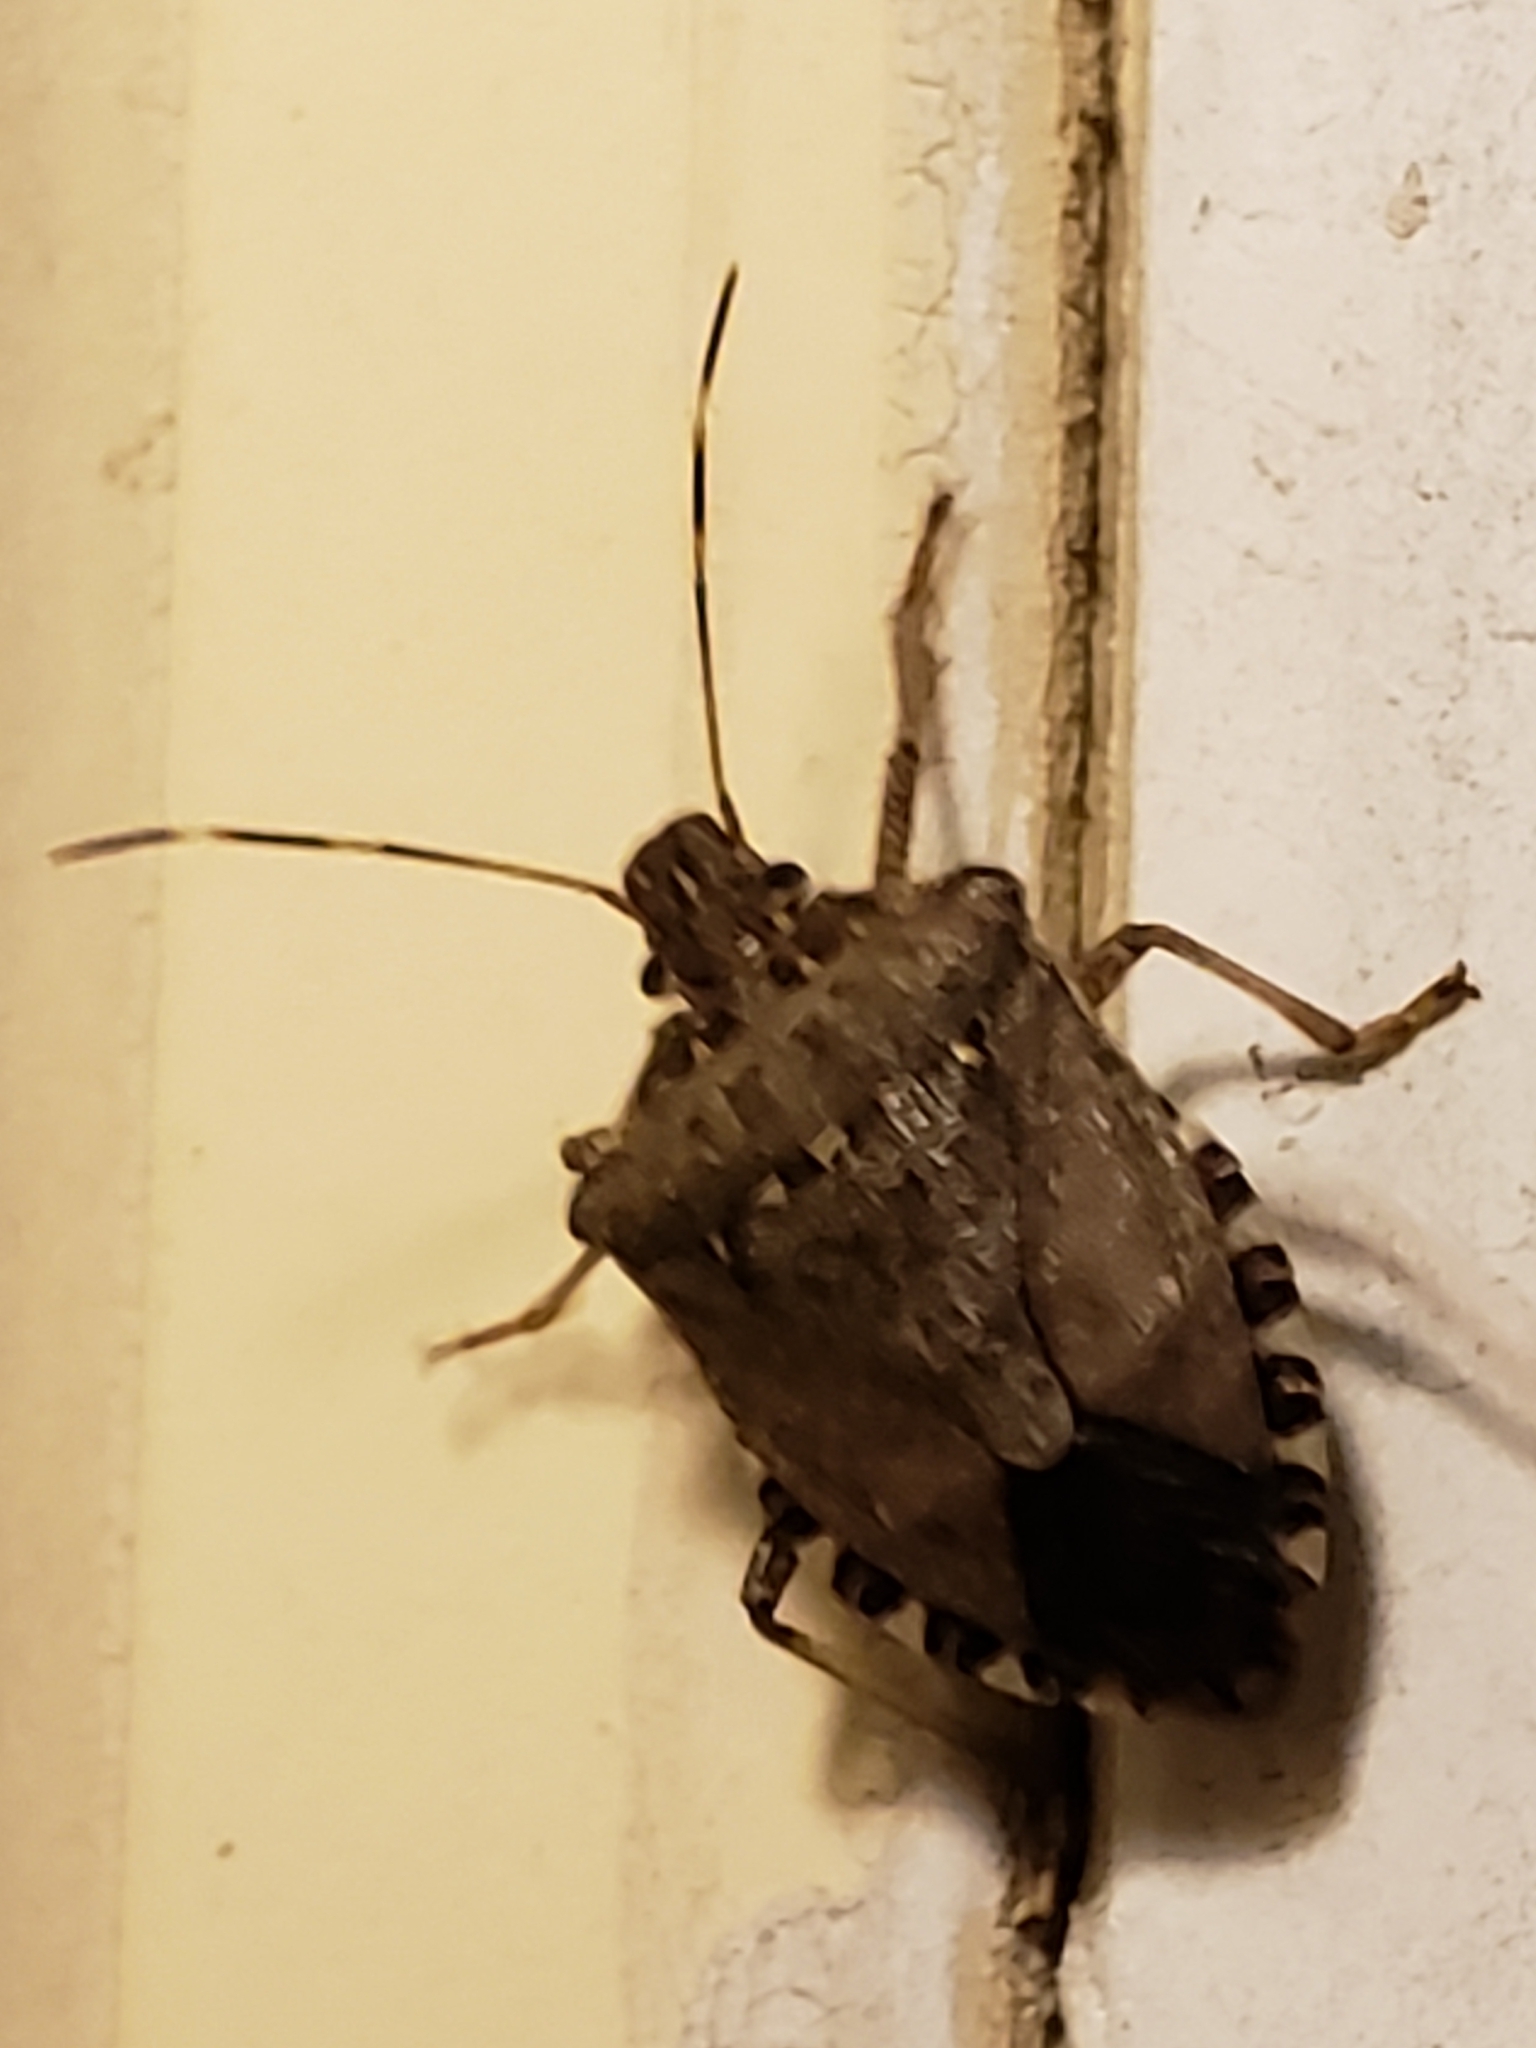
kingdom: Animalia
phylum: Arthropoda
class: Insecta
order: Hemiptera
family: Pentatomidae
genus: Halyomorpha
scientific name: Halyomorpha halys
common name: Brown marmorated stink bug
